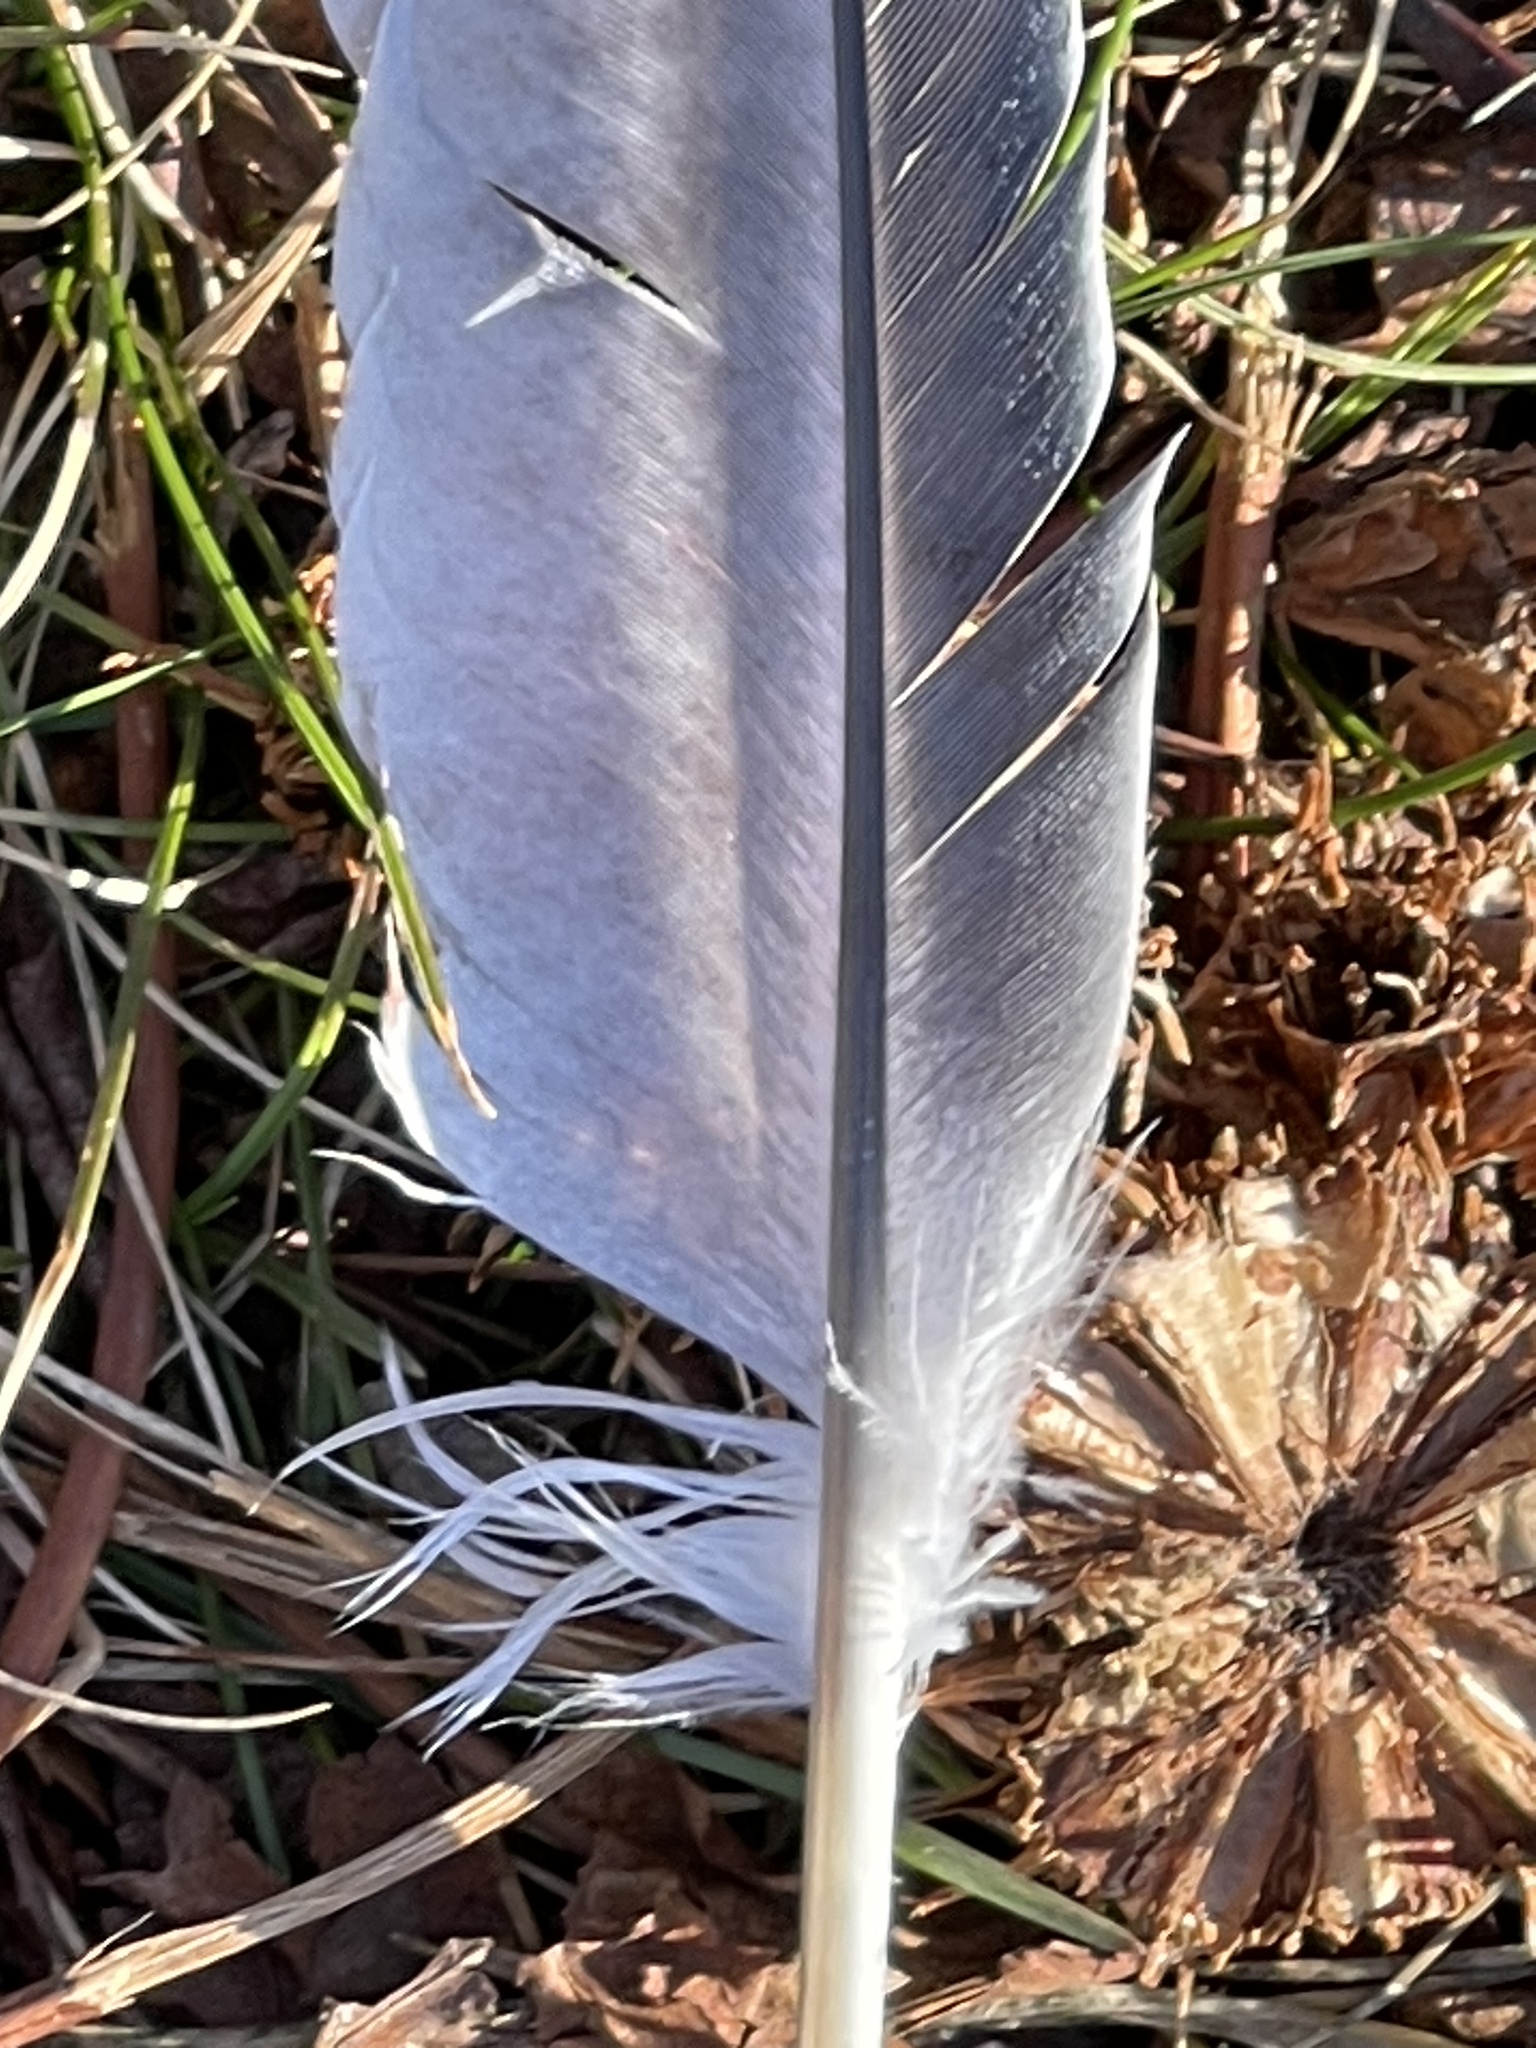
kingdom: Animalia
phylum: Chordata
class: Aves
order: Columbiformes
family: Columbidae
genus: Columba
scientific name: Columba livia
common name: Rock pigeon
